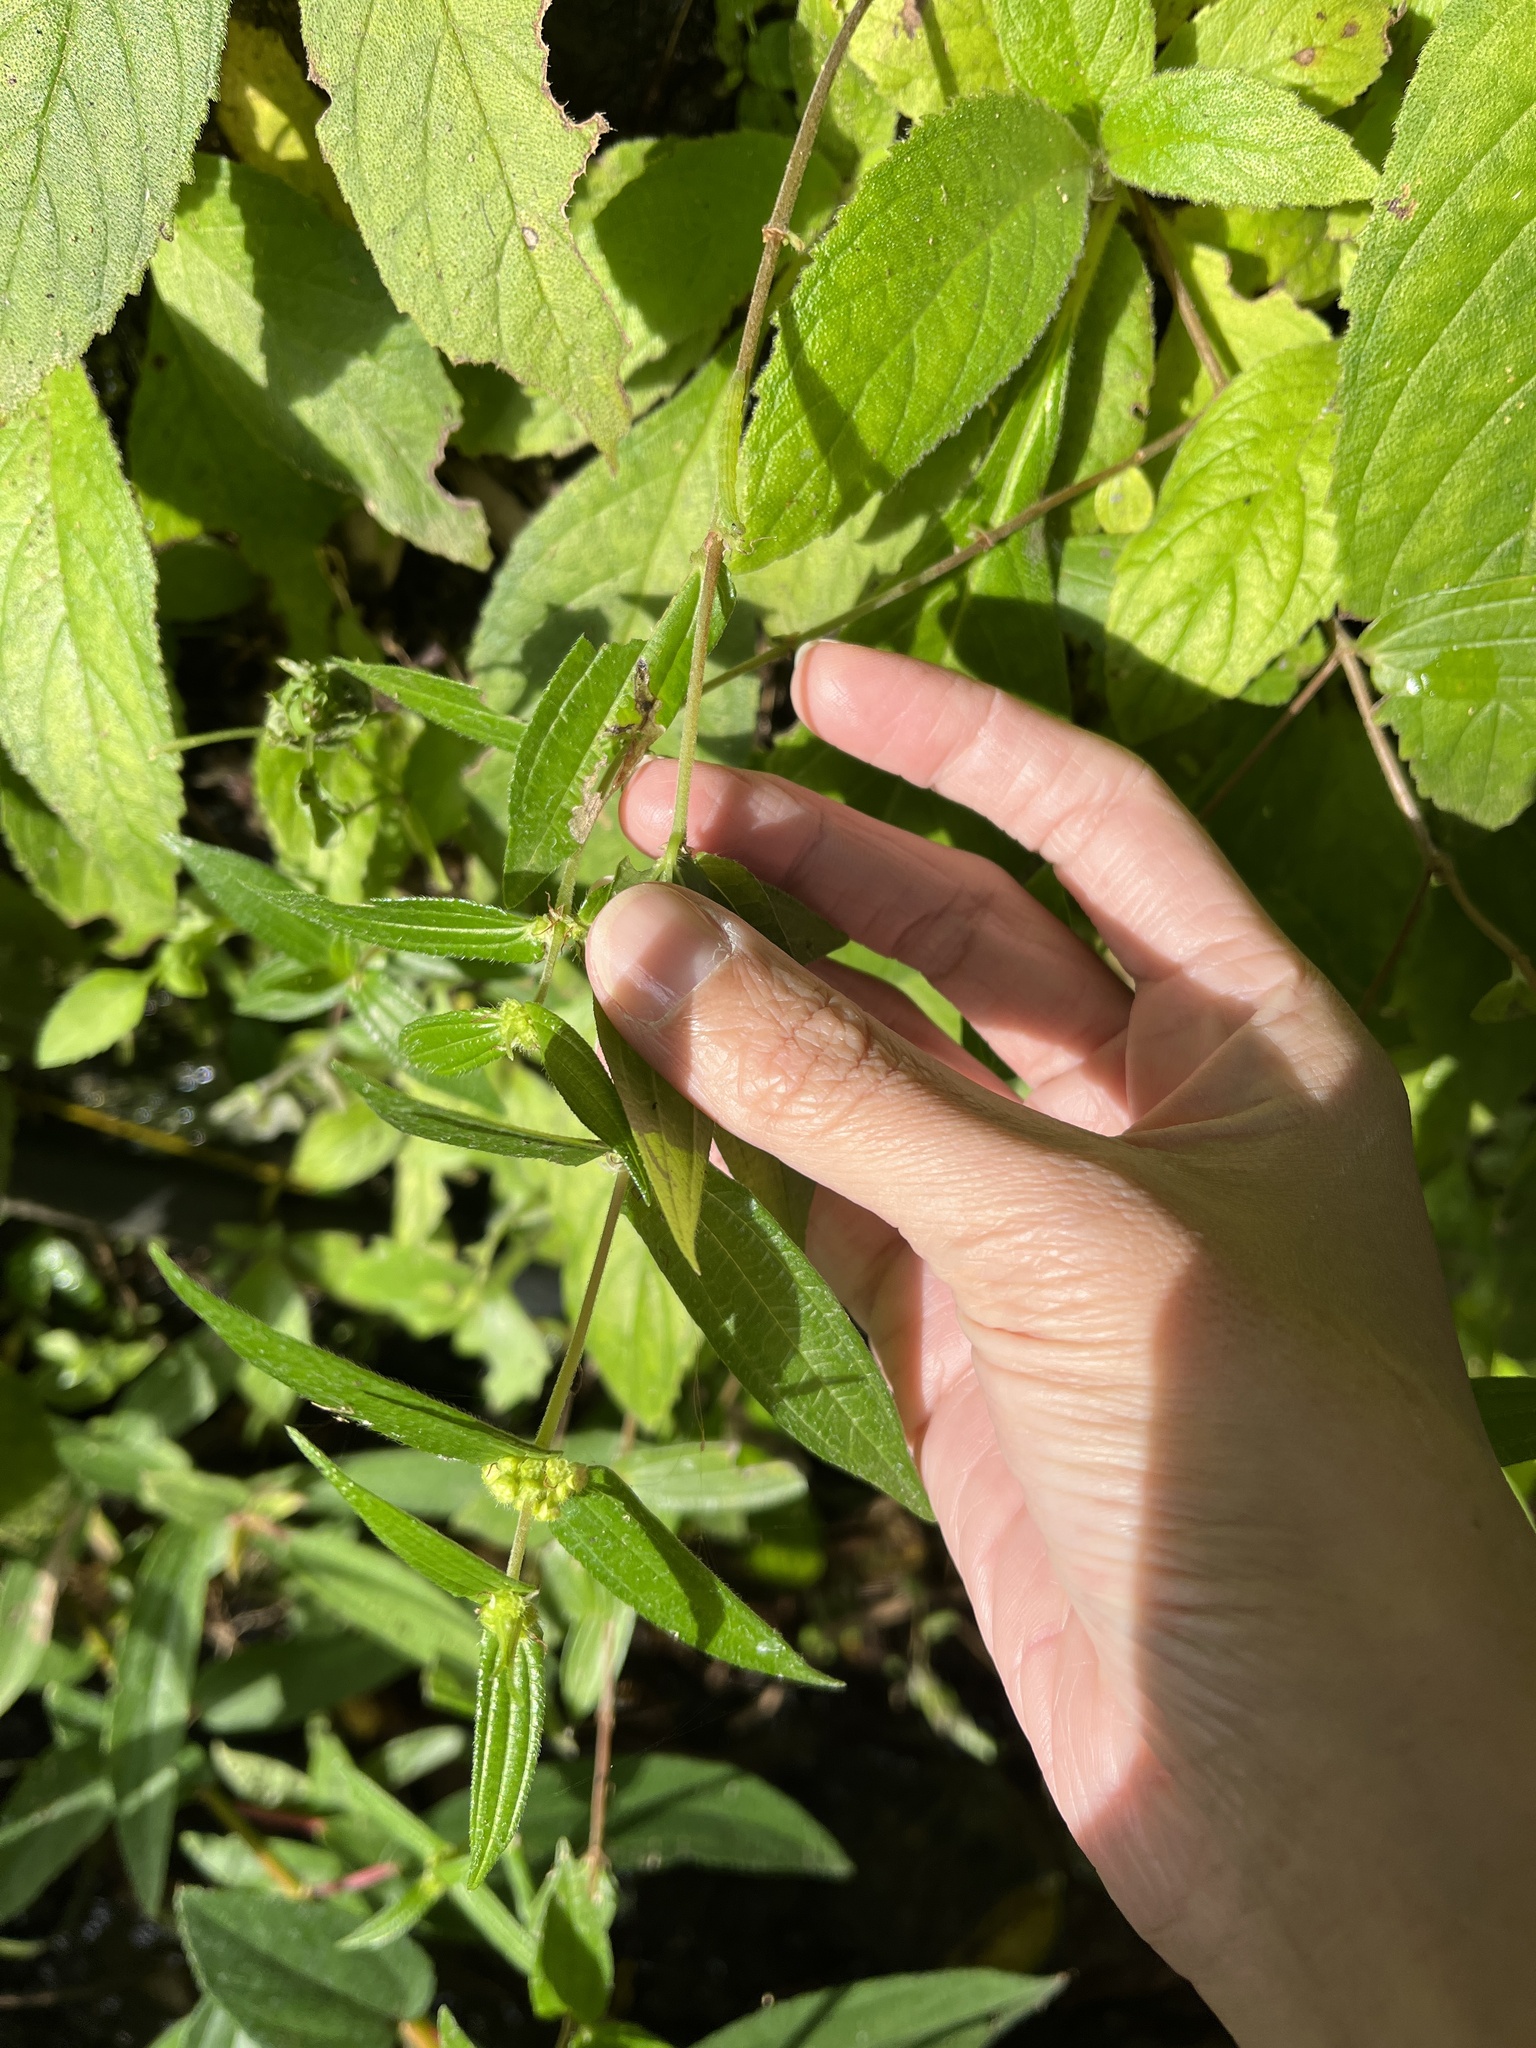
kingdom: Plantae
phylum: Tracheophyta
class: Magnoliopsida
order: Rosales
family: Urticaceae
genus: Gonostegia
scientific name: Gonostegia triandra
